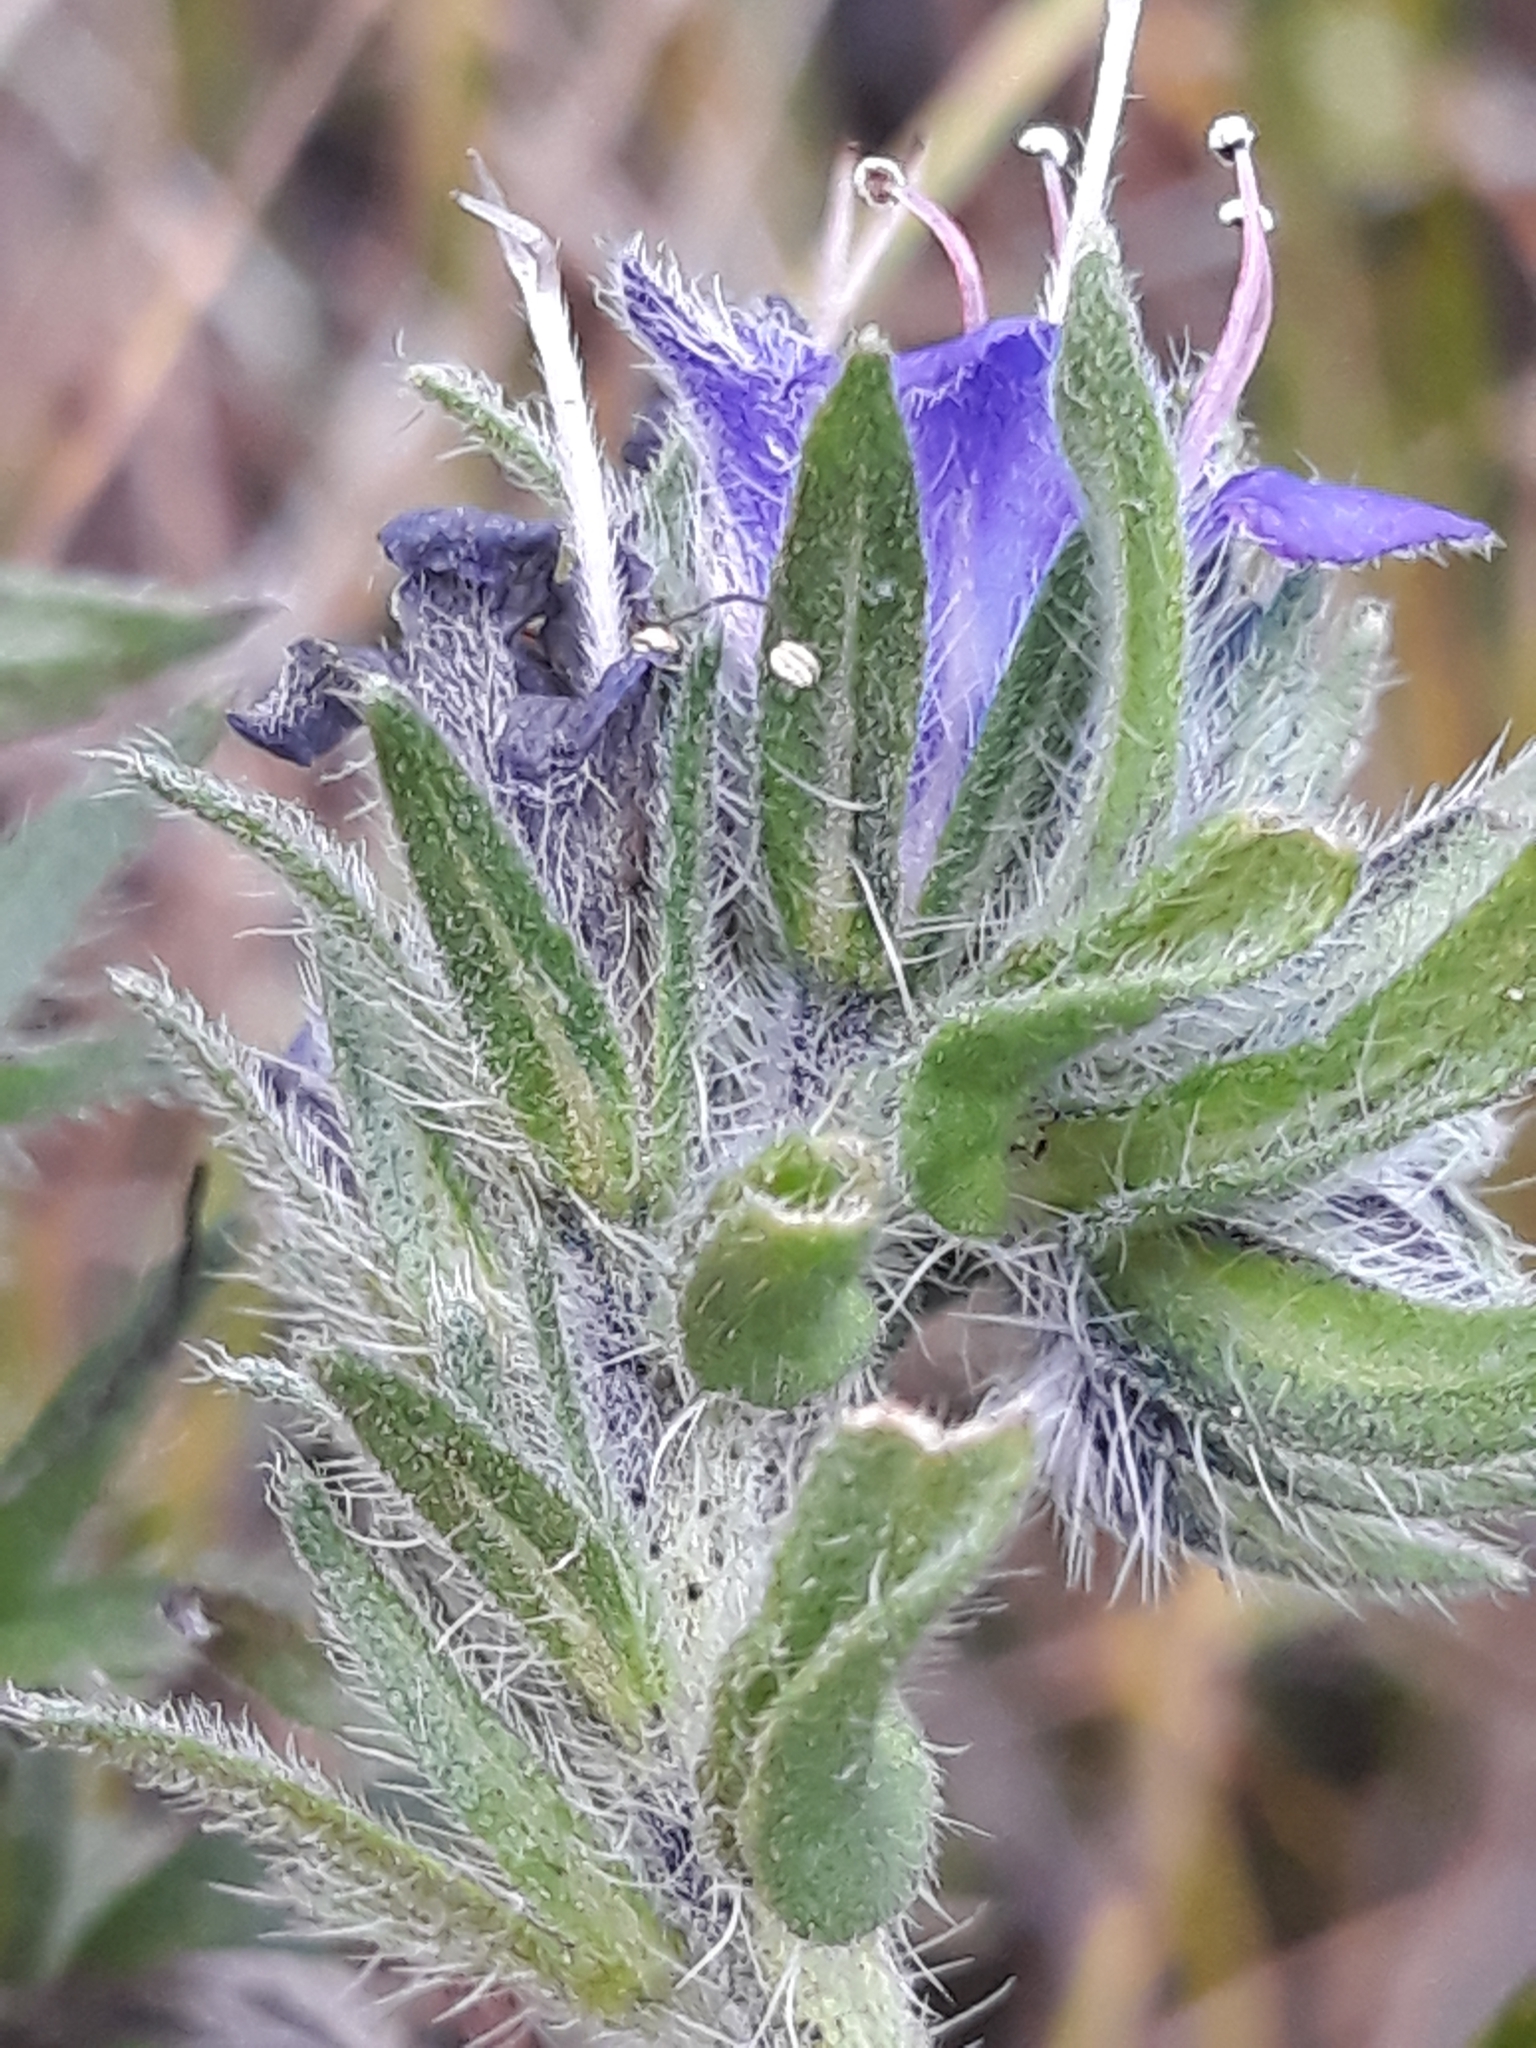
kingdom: Plantae
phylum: Tracheophyta
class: Magnoliopsida
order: Boraginales
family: Boraginaceae
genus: Echium
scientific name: Echium vulgare
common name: Common viper's bugloss
